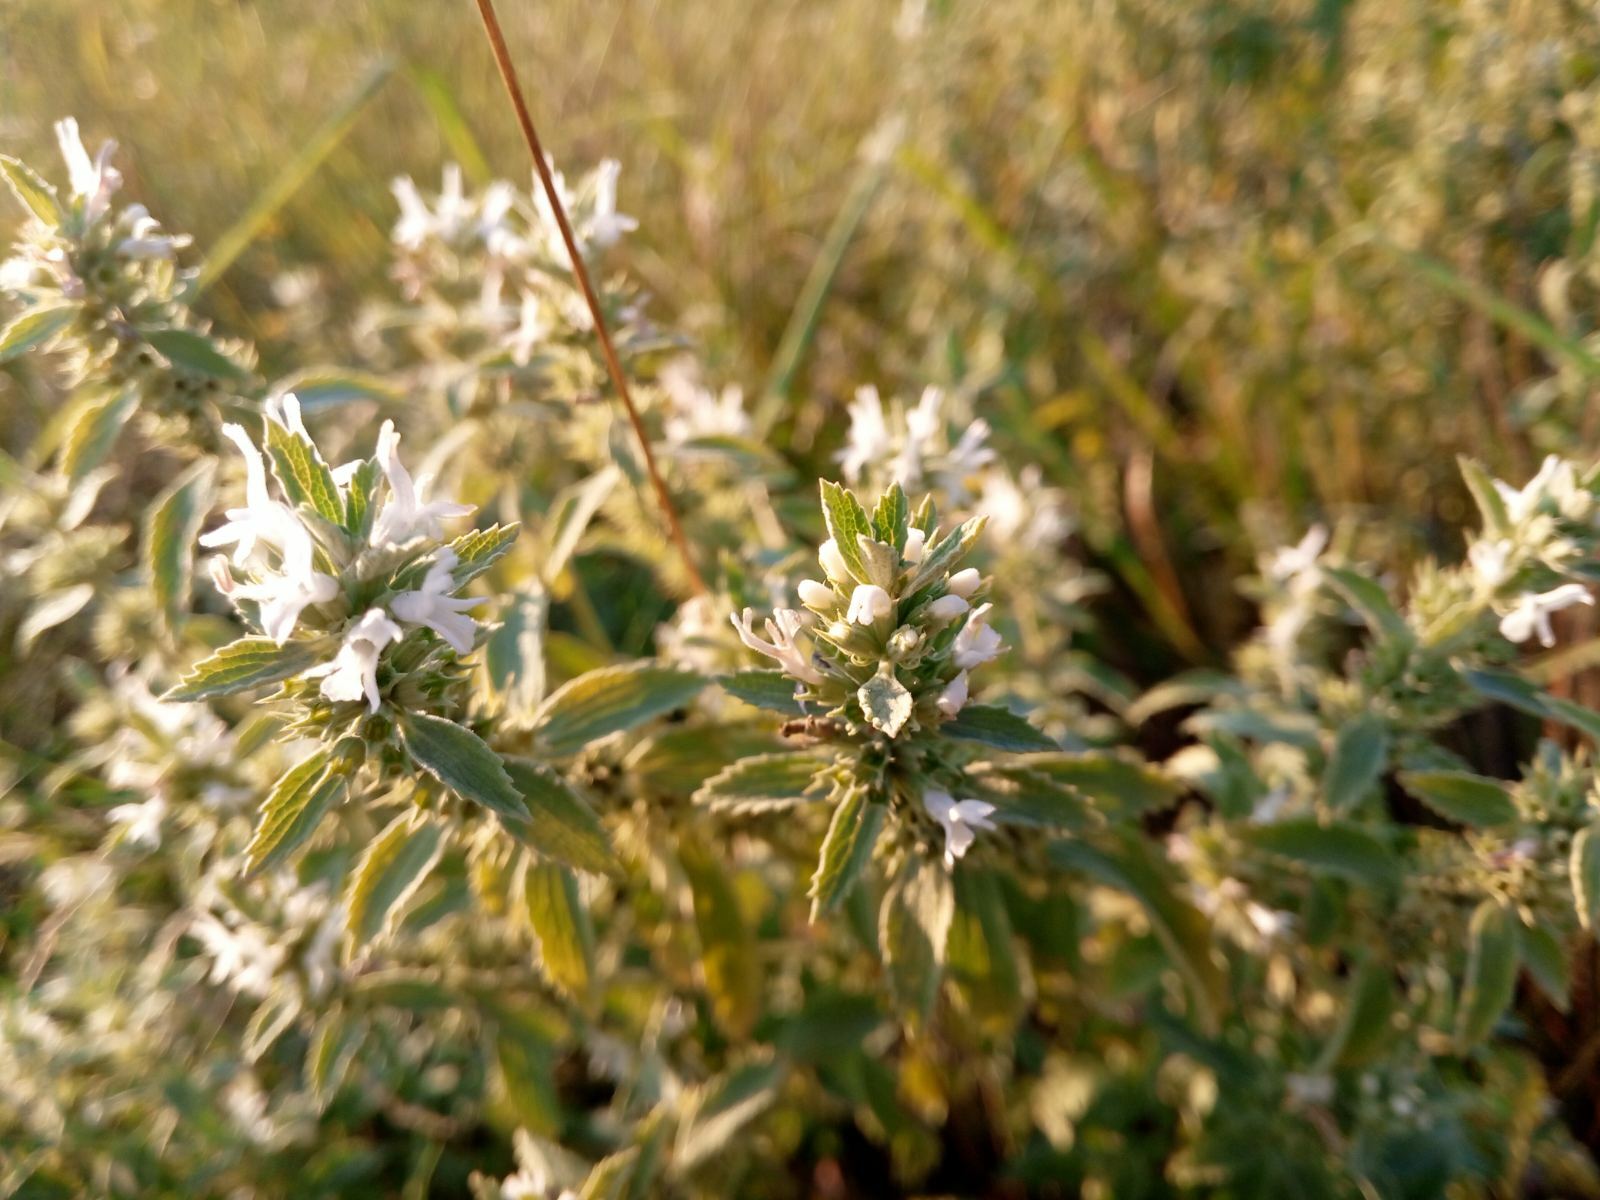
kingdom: Plantae
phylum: Tracheophyta
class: Magnoliopsida
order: Lamiales
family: Lamiaceae
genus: Marrubium
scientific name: Marrubium peregrinum
